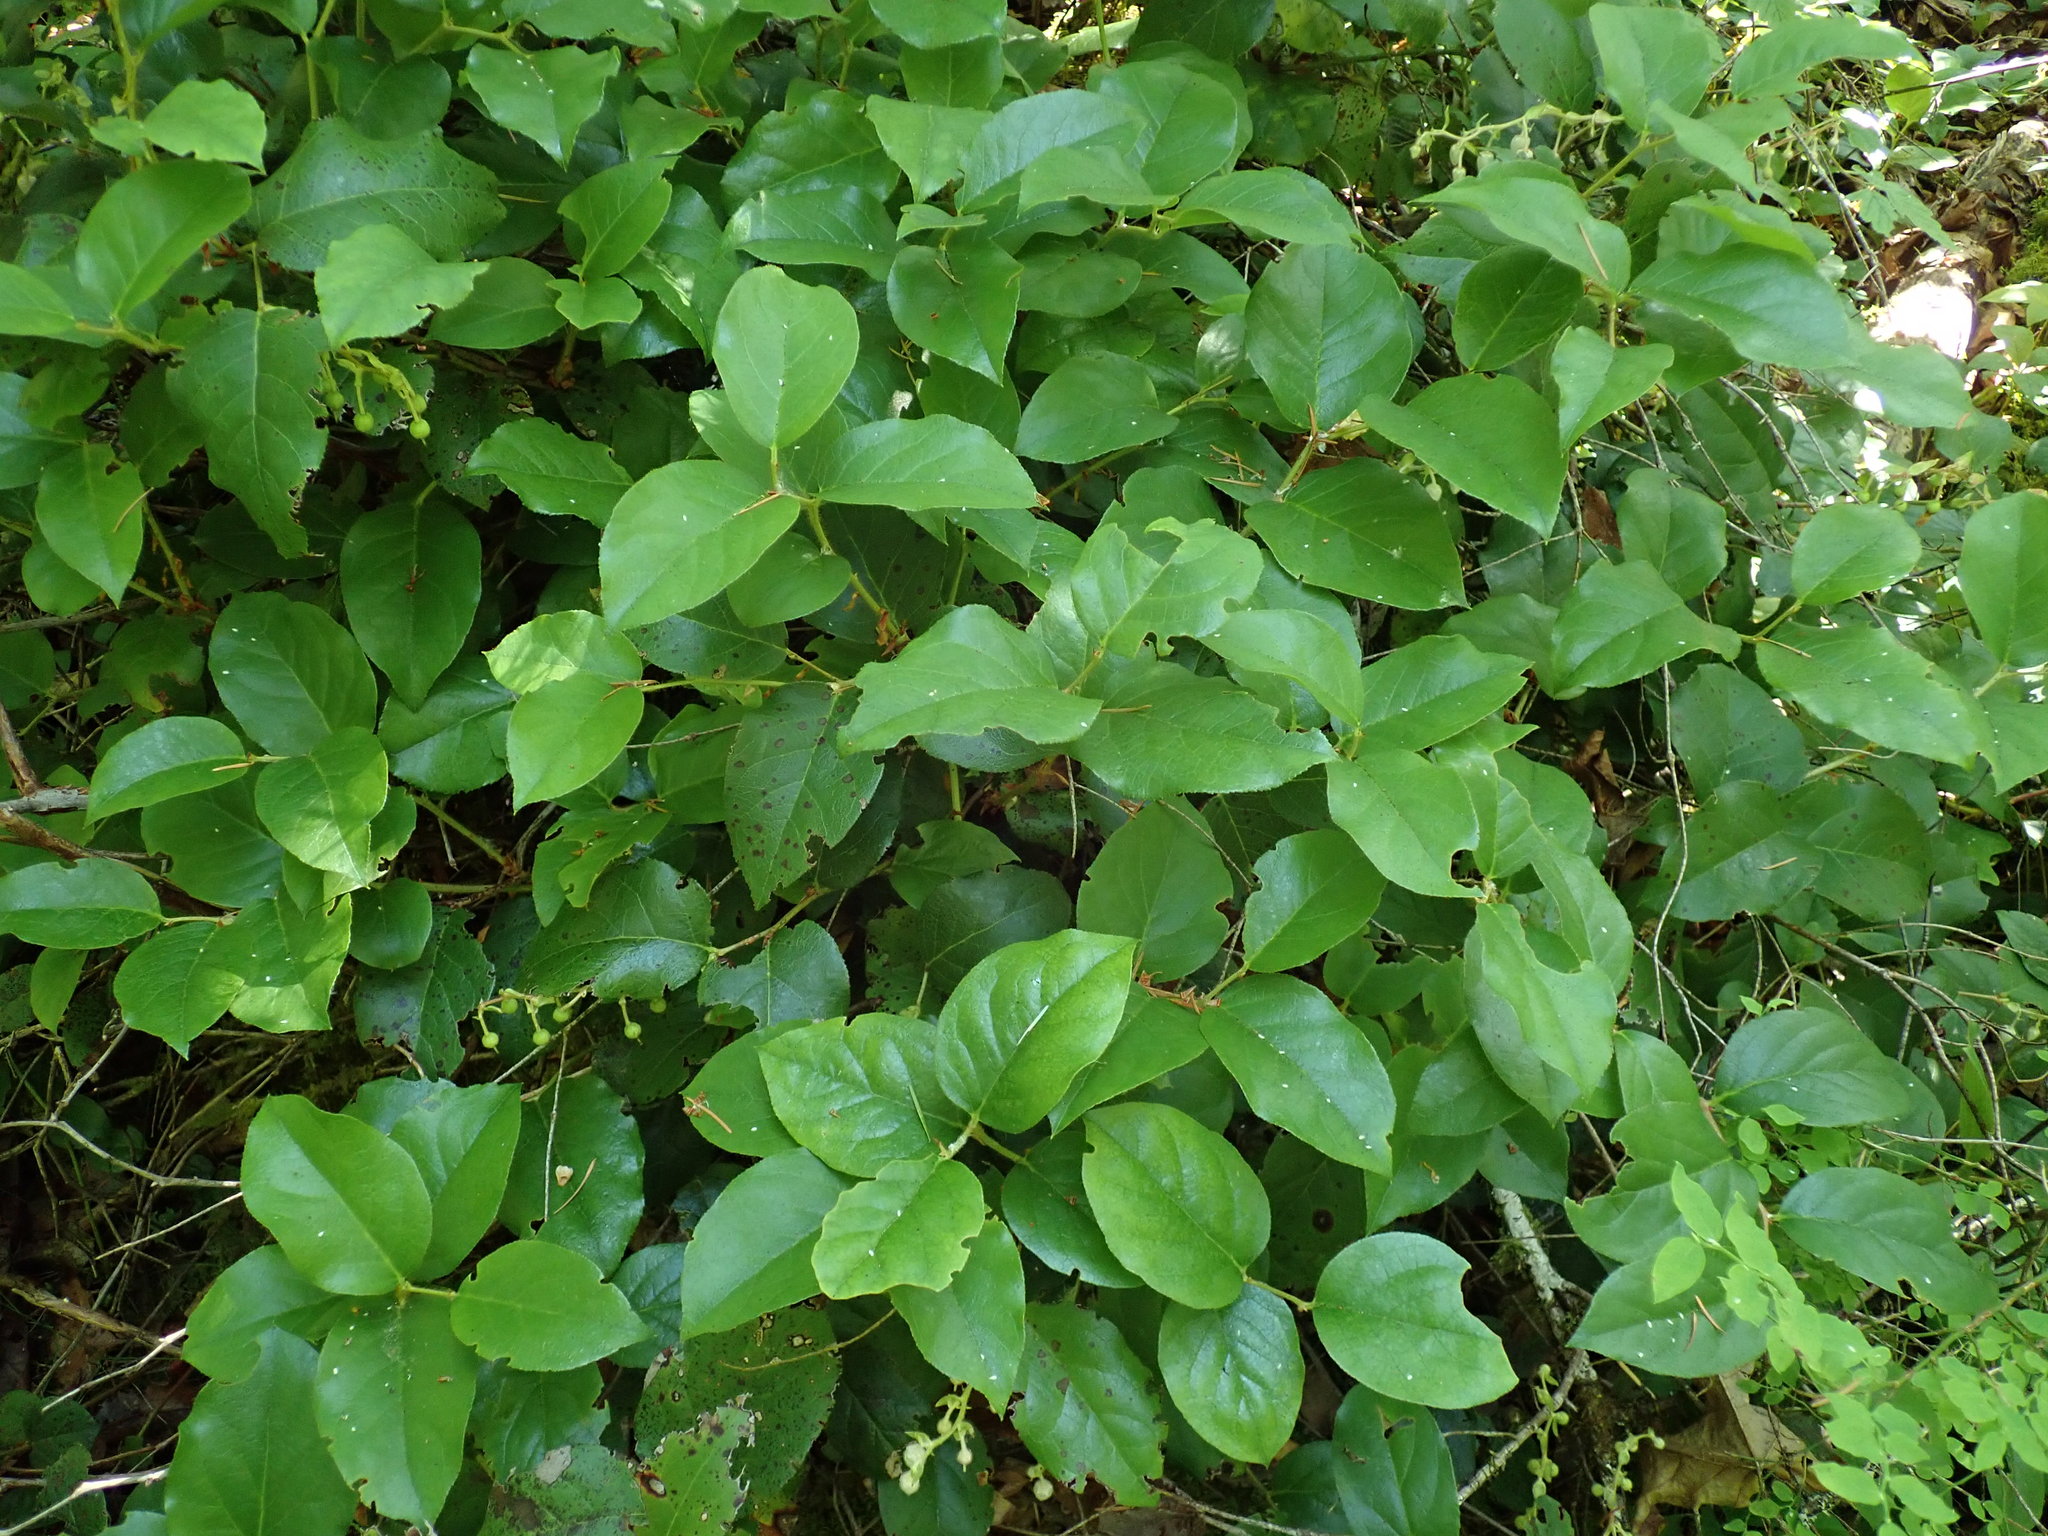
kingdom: Plantae
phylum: Tracheophyta
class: Magnoliopsida
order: Ericales
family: Ericaceae
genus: Gaultheria
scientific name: Gaultheria shallon
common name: Shallon
